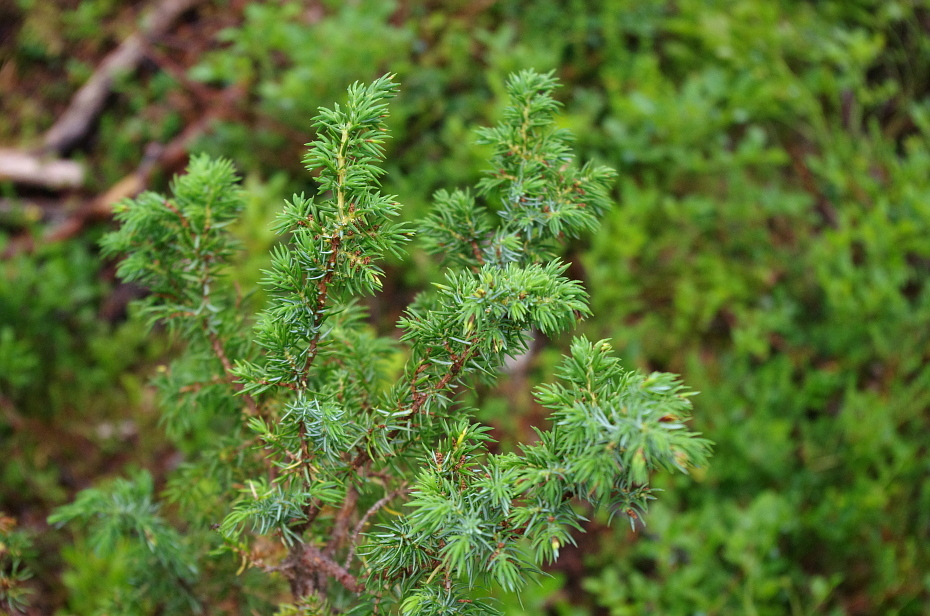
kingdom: Plantae
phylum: Tracheophyta
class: Pinopsida
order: Pinales
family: Cupressaceae
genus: Juniperus
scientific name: Juniperus communis
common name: Common juniper
